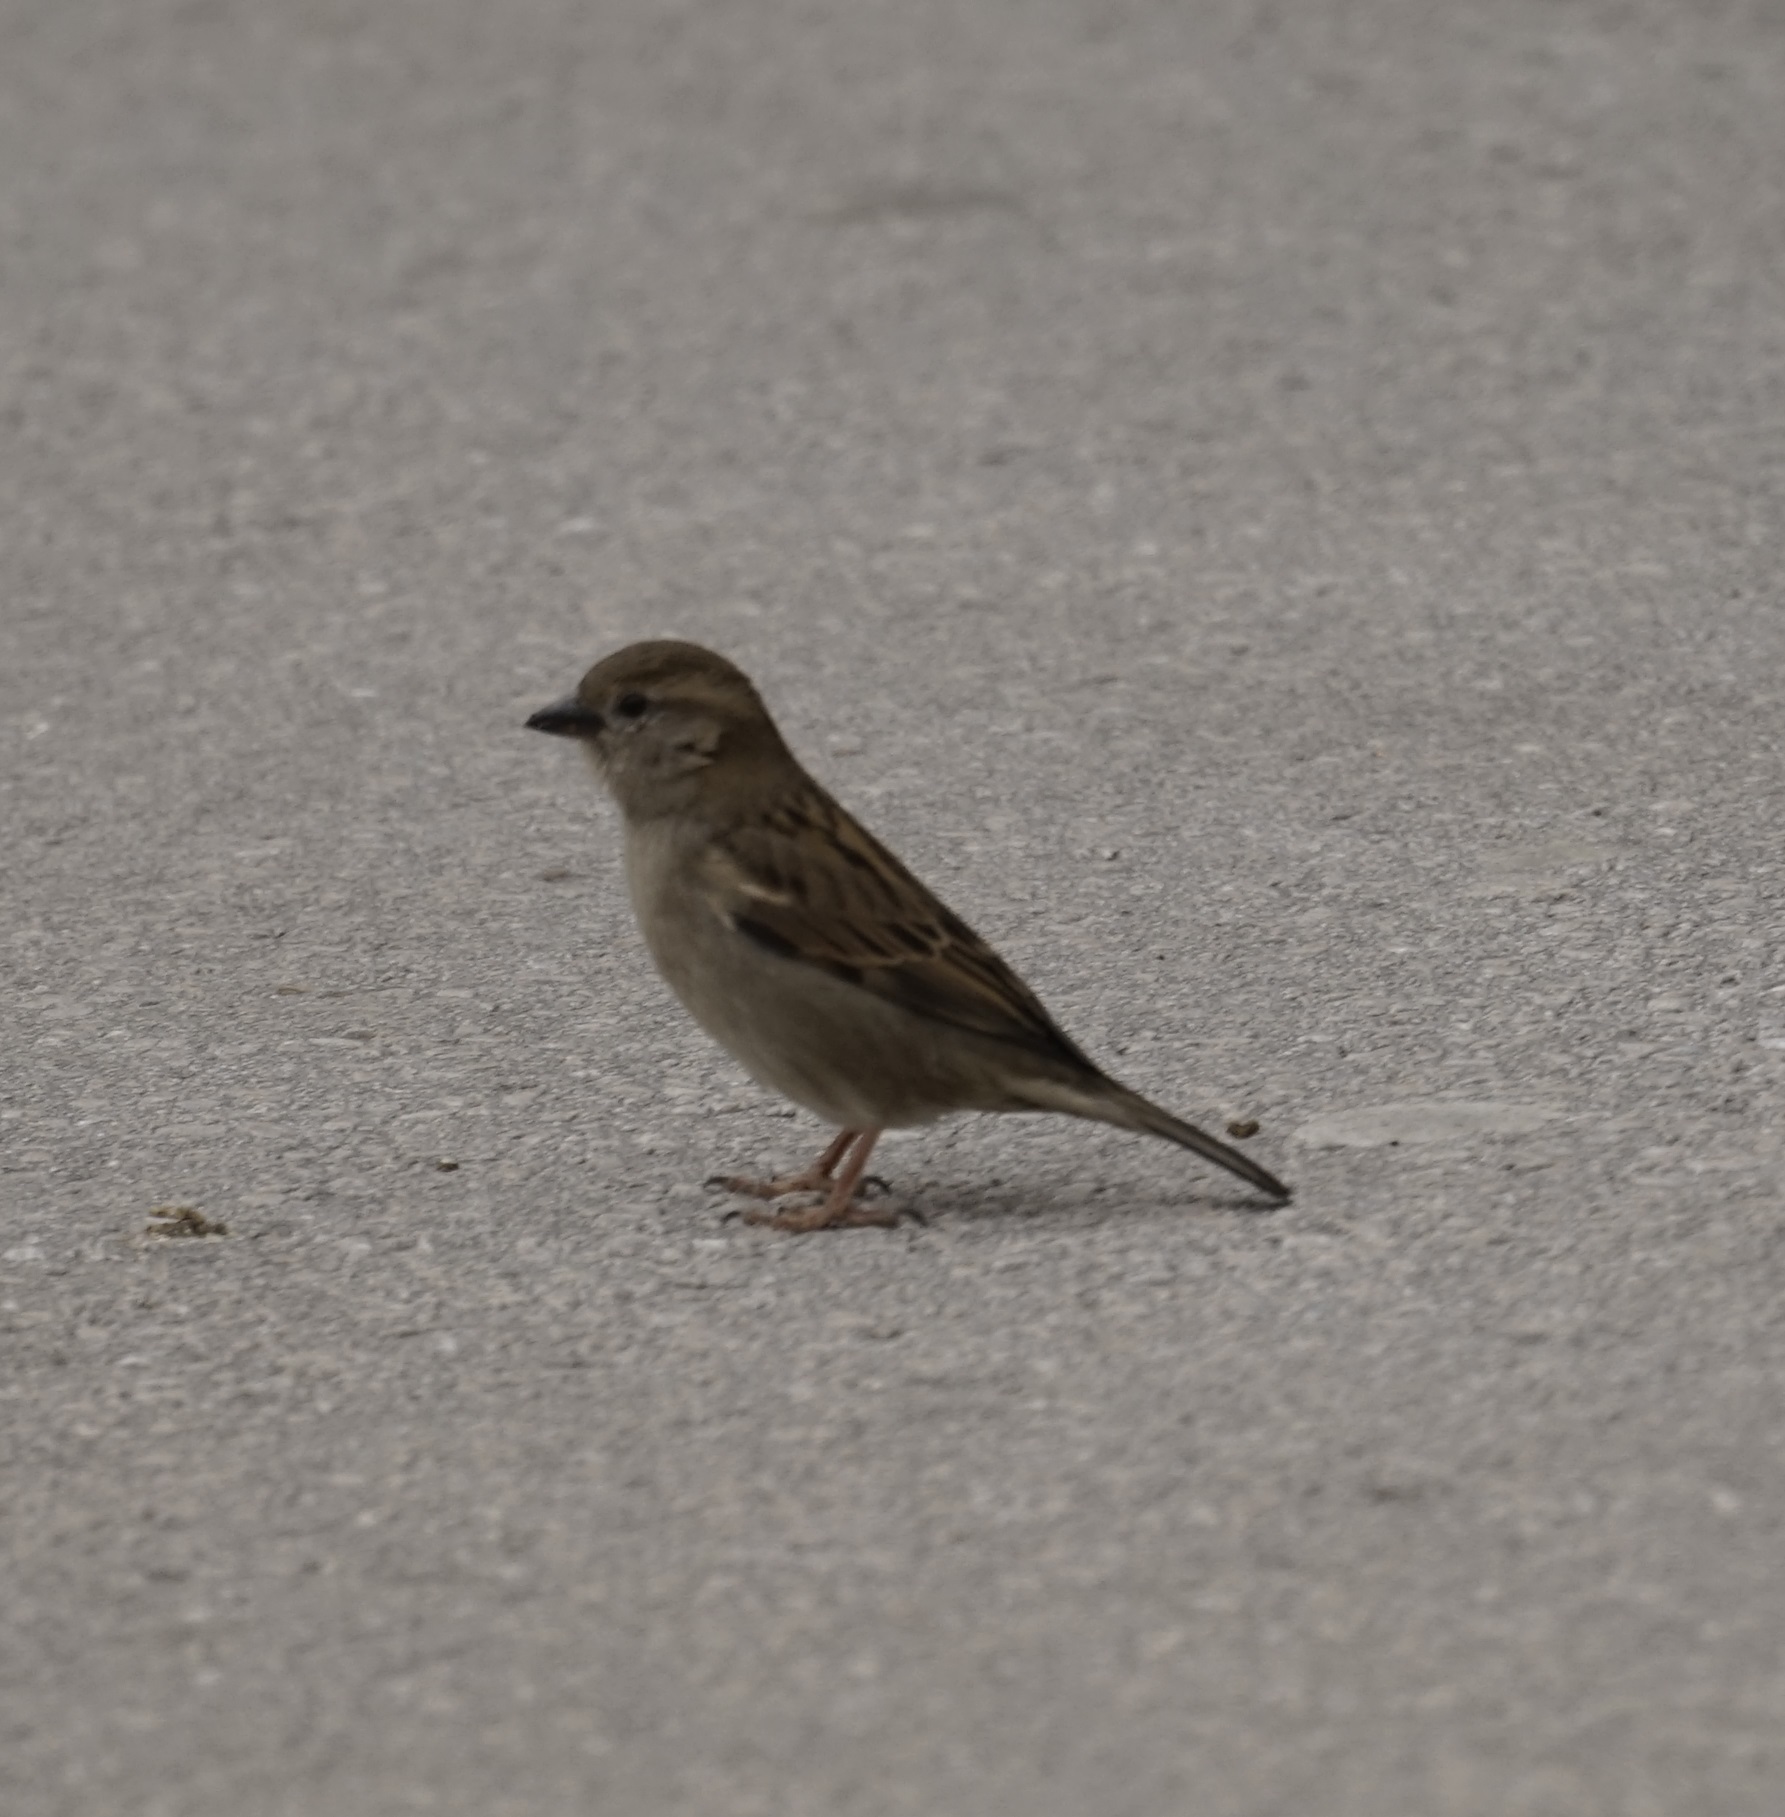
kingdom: Animalia
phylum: Chordata
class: Aves
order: Passeriformes
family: Passeridae
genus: Passer
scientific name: Passer domesticus
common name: House sparrow
